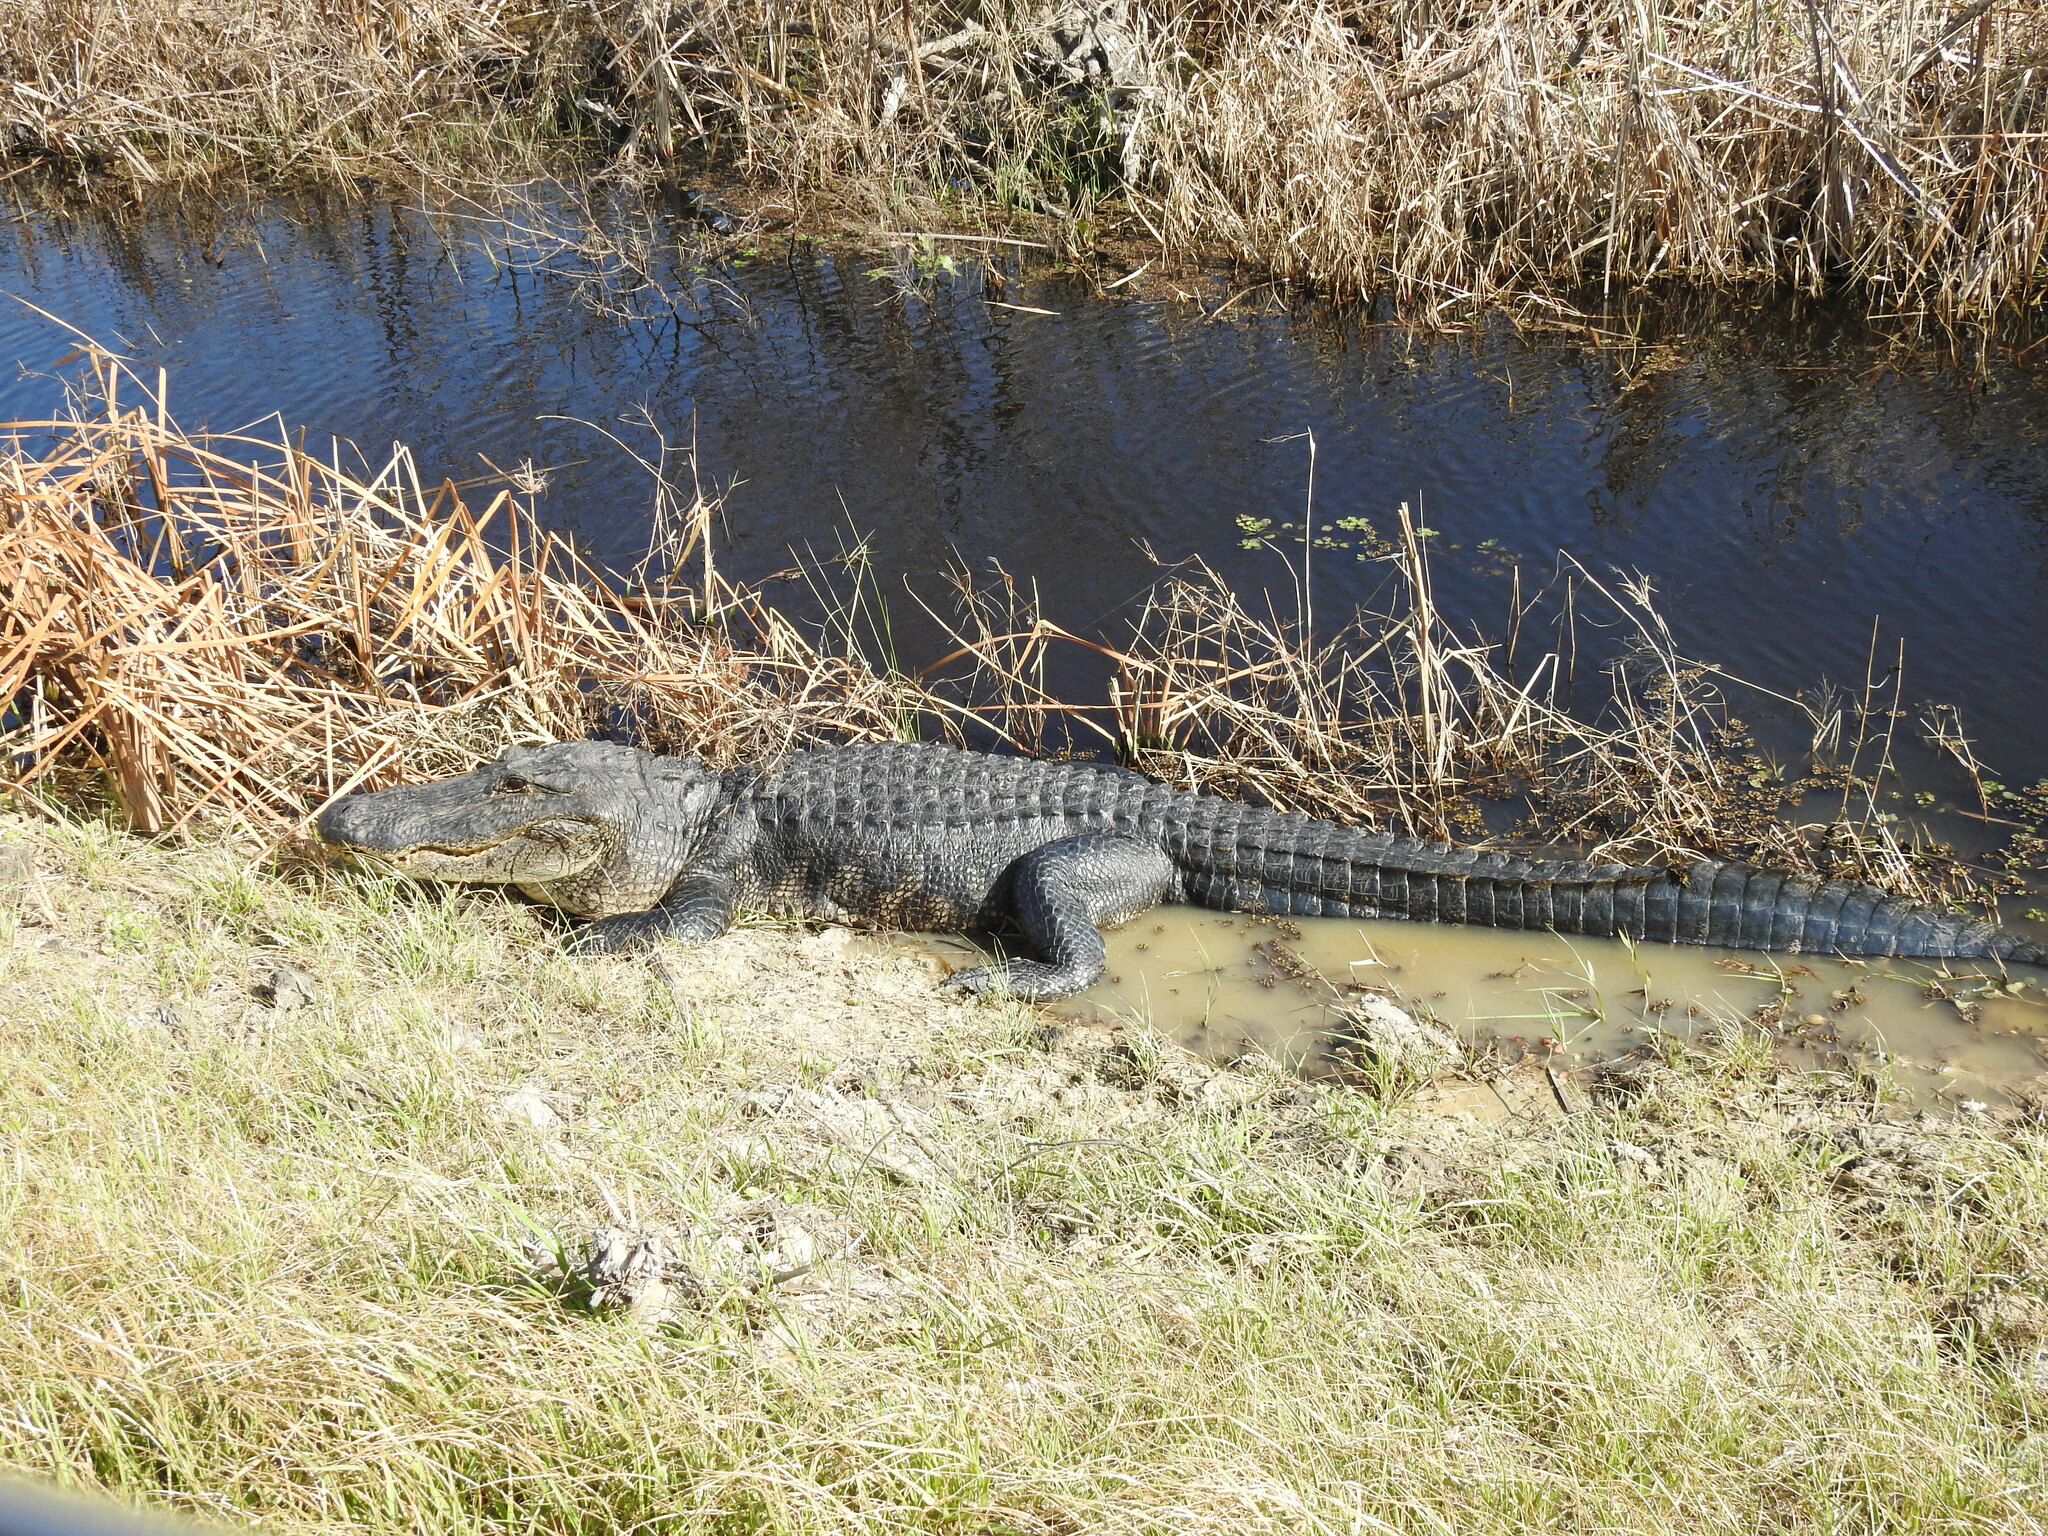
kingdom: Animalia
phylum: Chordata
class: Crocodylia
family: Alligatoridae
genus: Alligator
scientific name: Alligator mississippiensis
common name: American alligator
